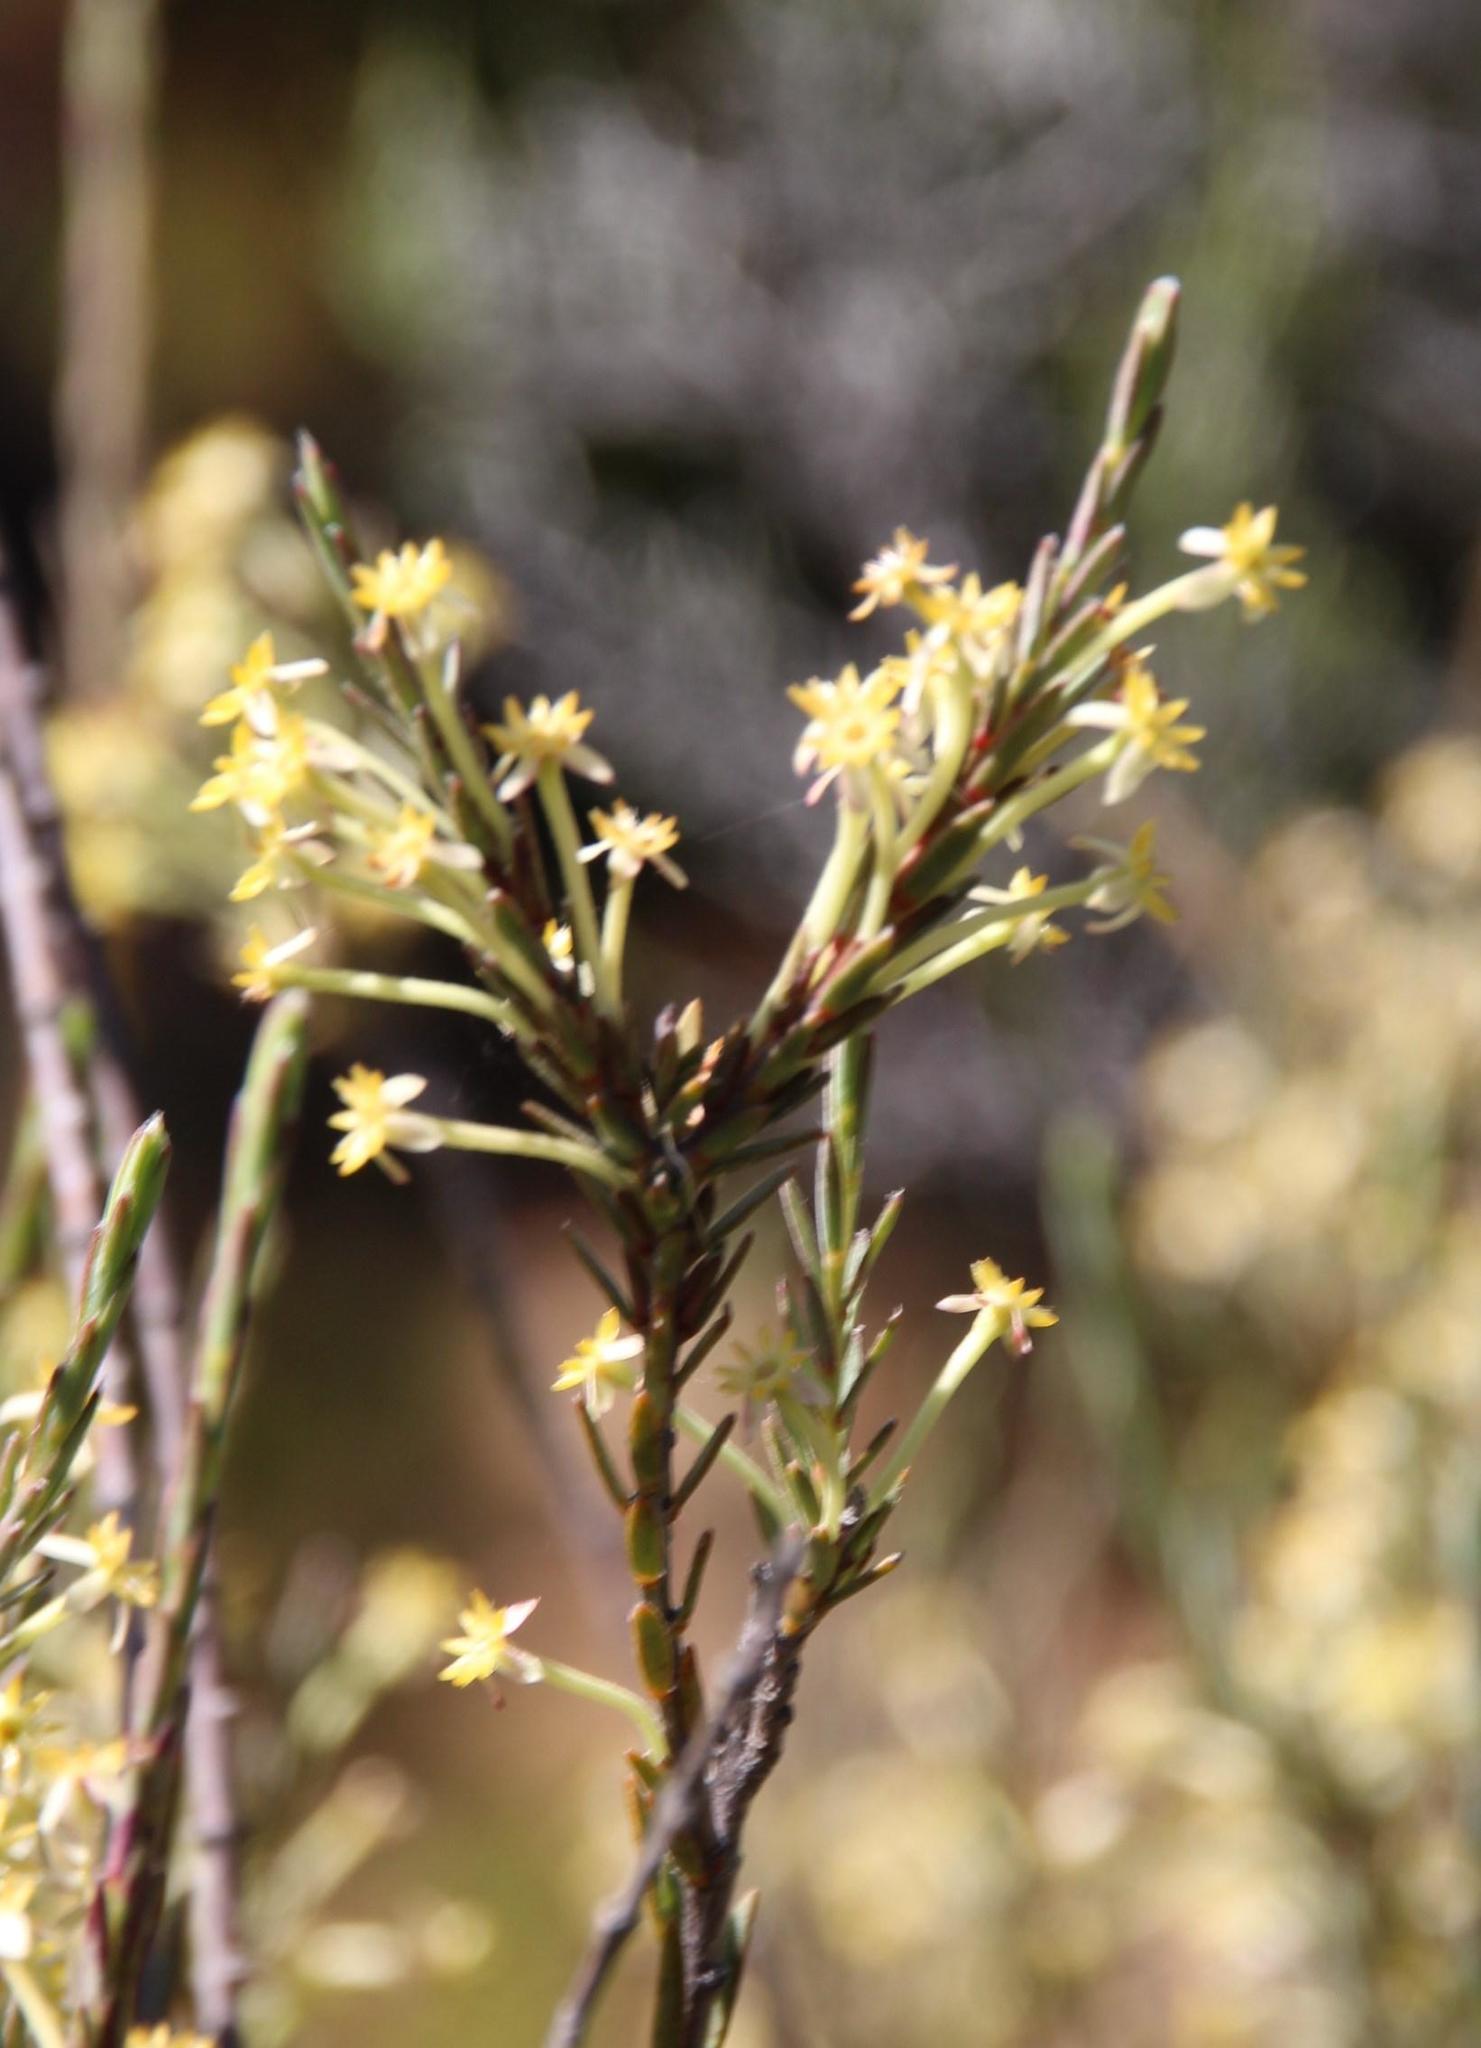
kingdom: Plantae
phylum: Tracheophyta
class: Magnoliopsida
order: Malvales
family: Thymelaeaceae
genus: Struthiola
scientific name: Struthiola eckloniana
